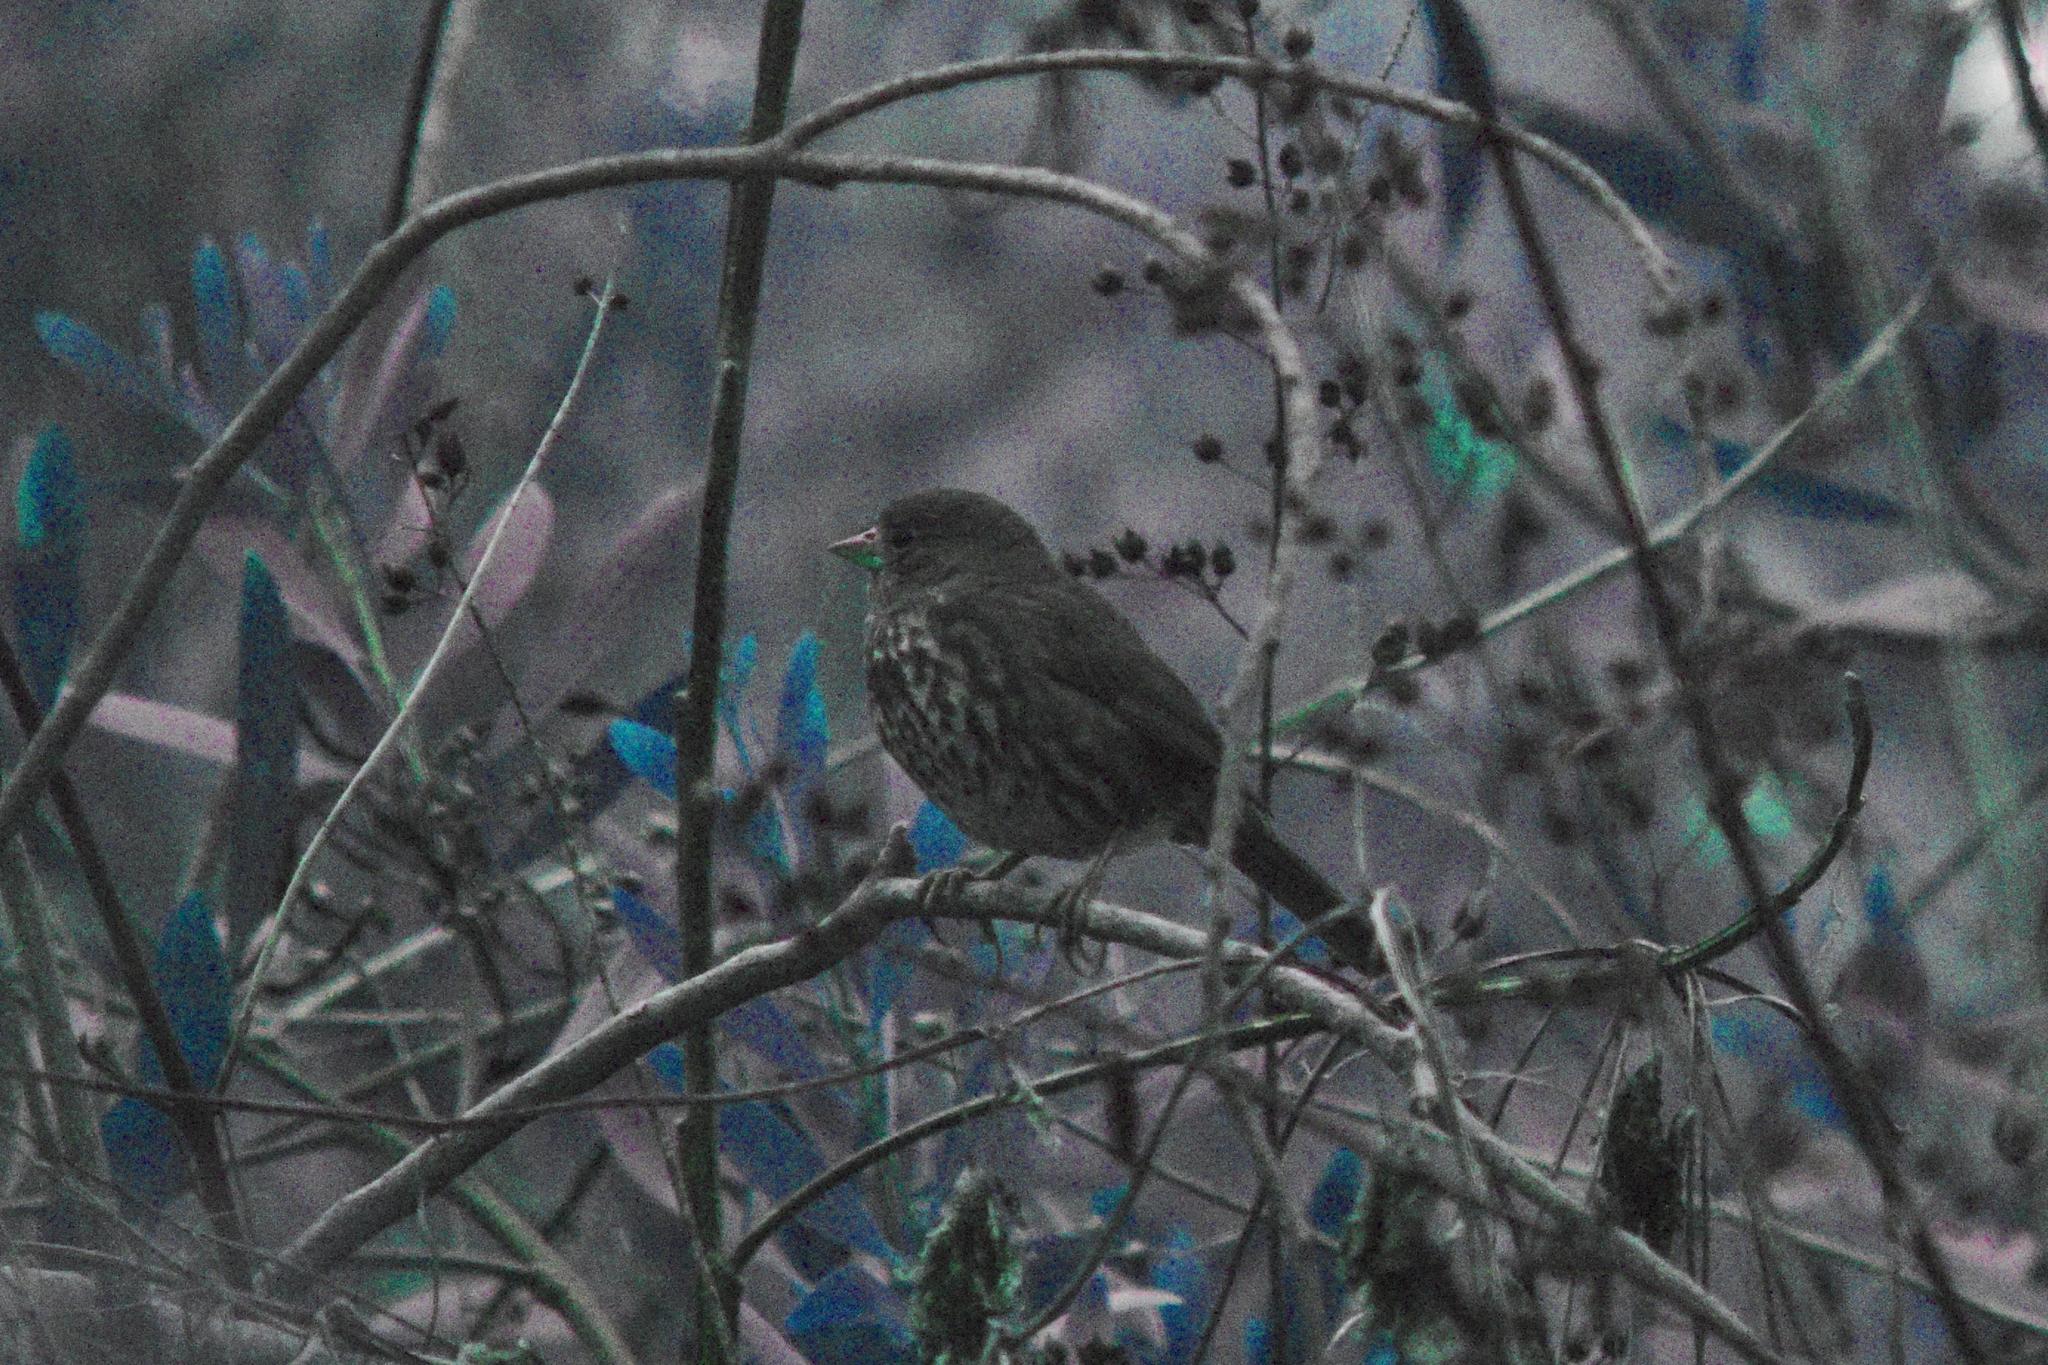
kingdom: Animalia
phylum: Chordata
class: Aves
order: Passeriformes
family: Passerellidae
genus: Passerella
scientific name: Passerella iliaca
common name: Fox sparrow
